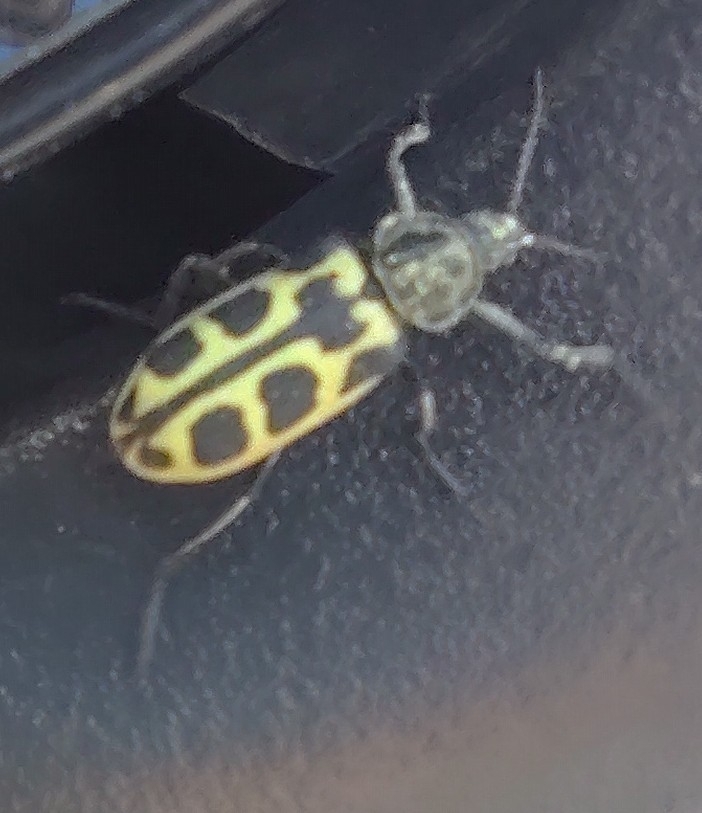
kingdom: Animalia
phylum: Arthropoda
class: Insecta
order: Coleoptera
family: Melyridae
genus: Astylus
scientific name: Astylus atromaculatus
